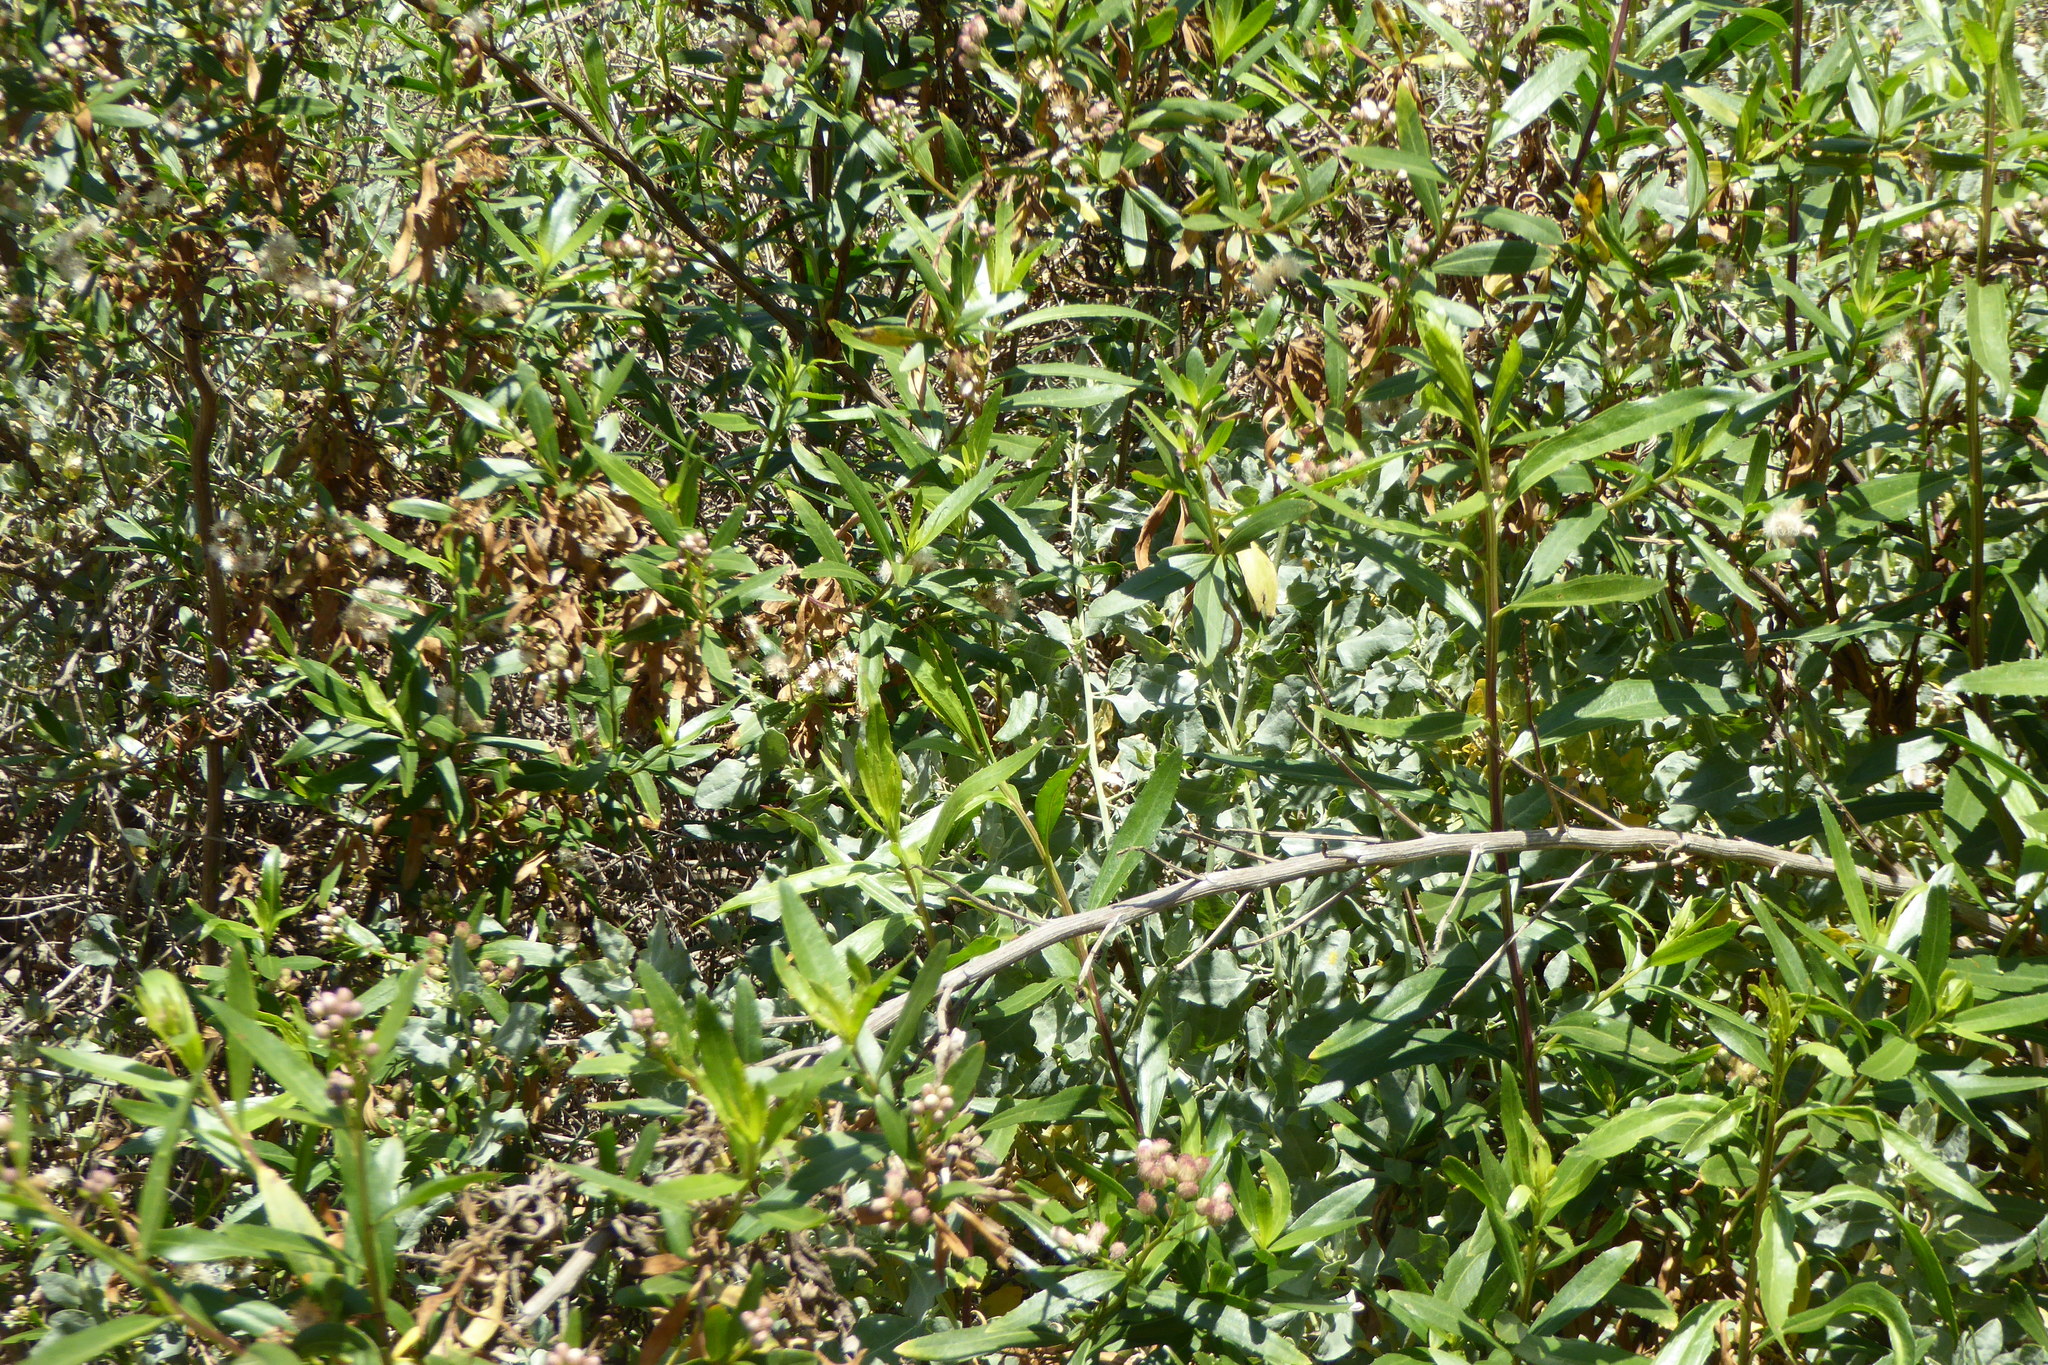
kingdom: Plantae
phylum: Tracheophyta
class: Magnoliopsida
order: Asterales
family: Asteraceae
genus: Baccharis
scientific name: Baccharis salicifolia
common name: Sticky baccharis
